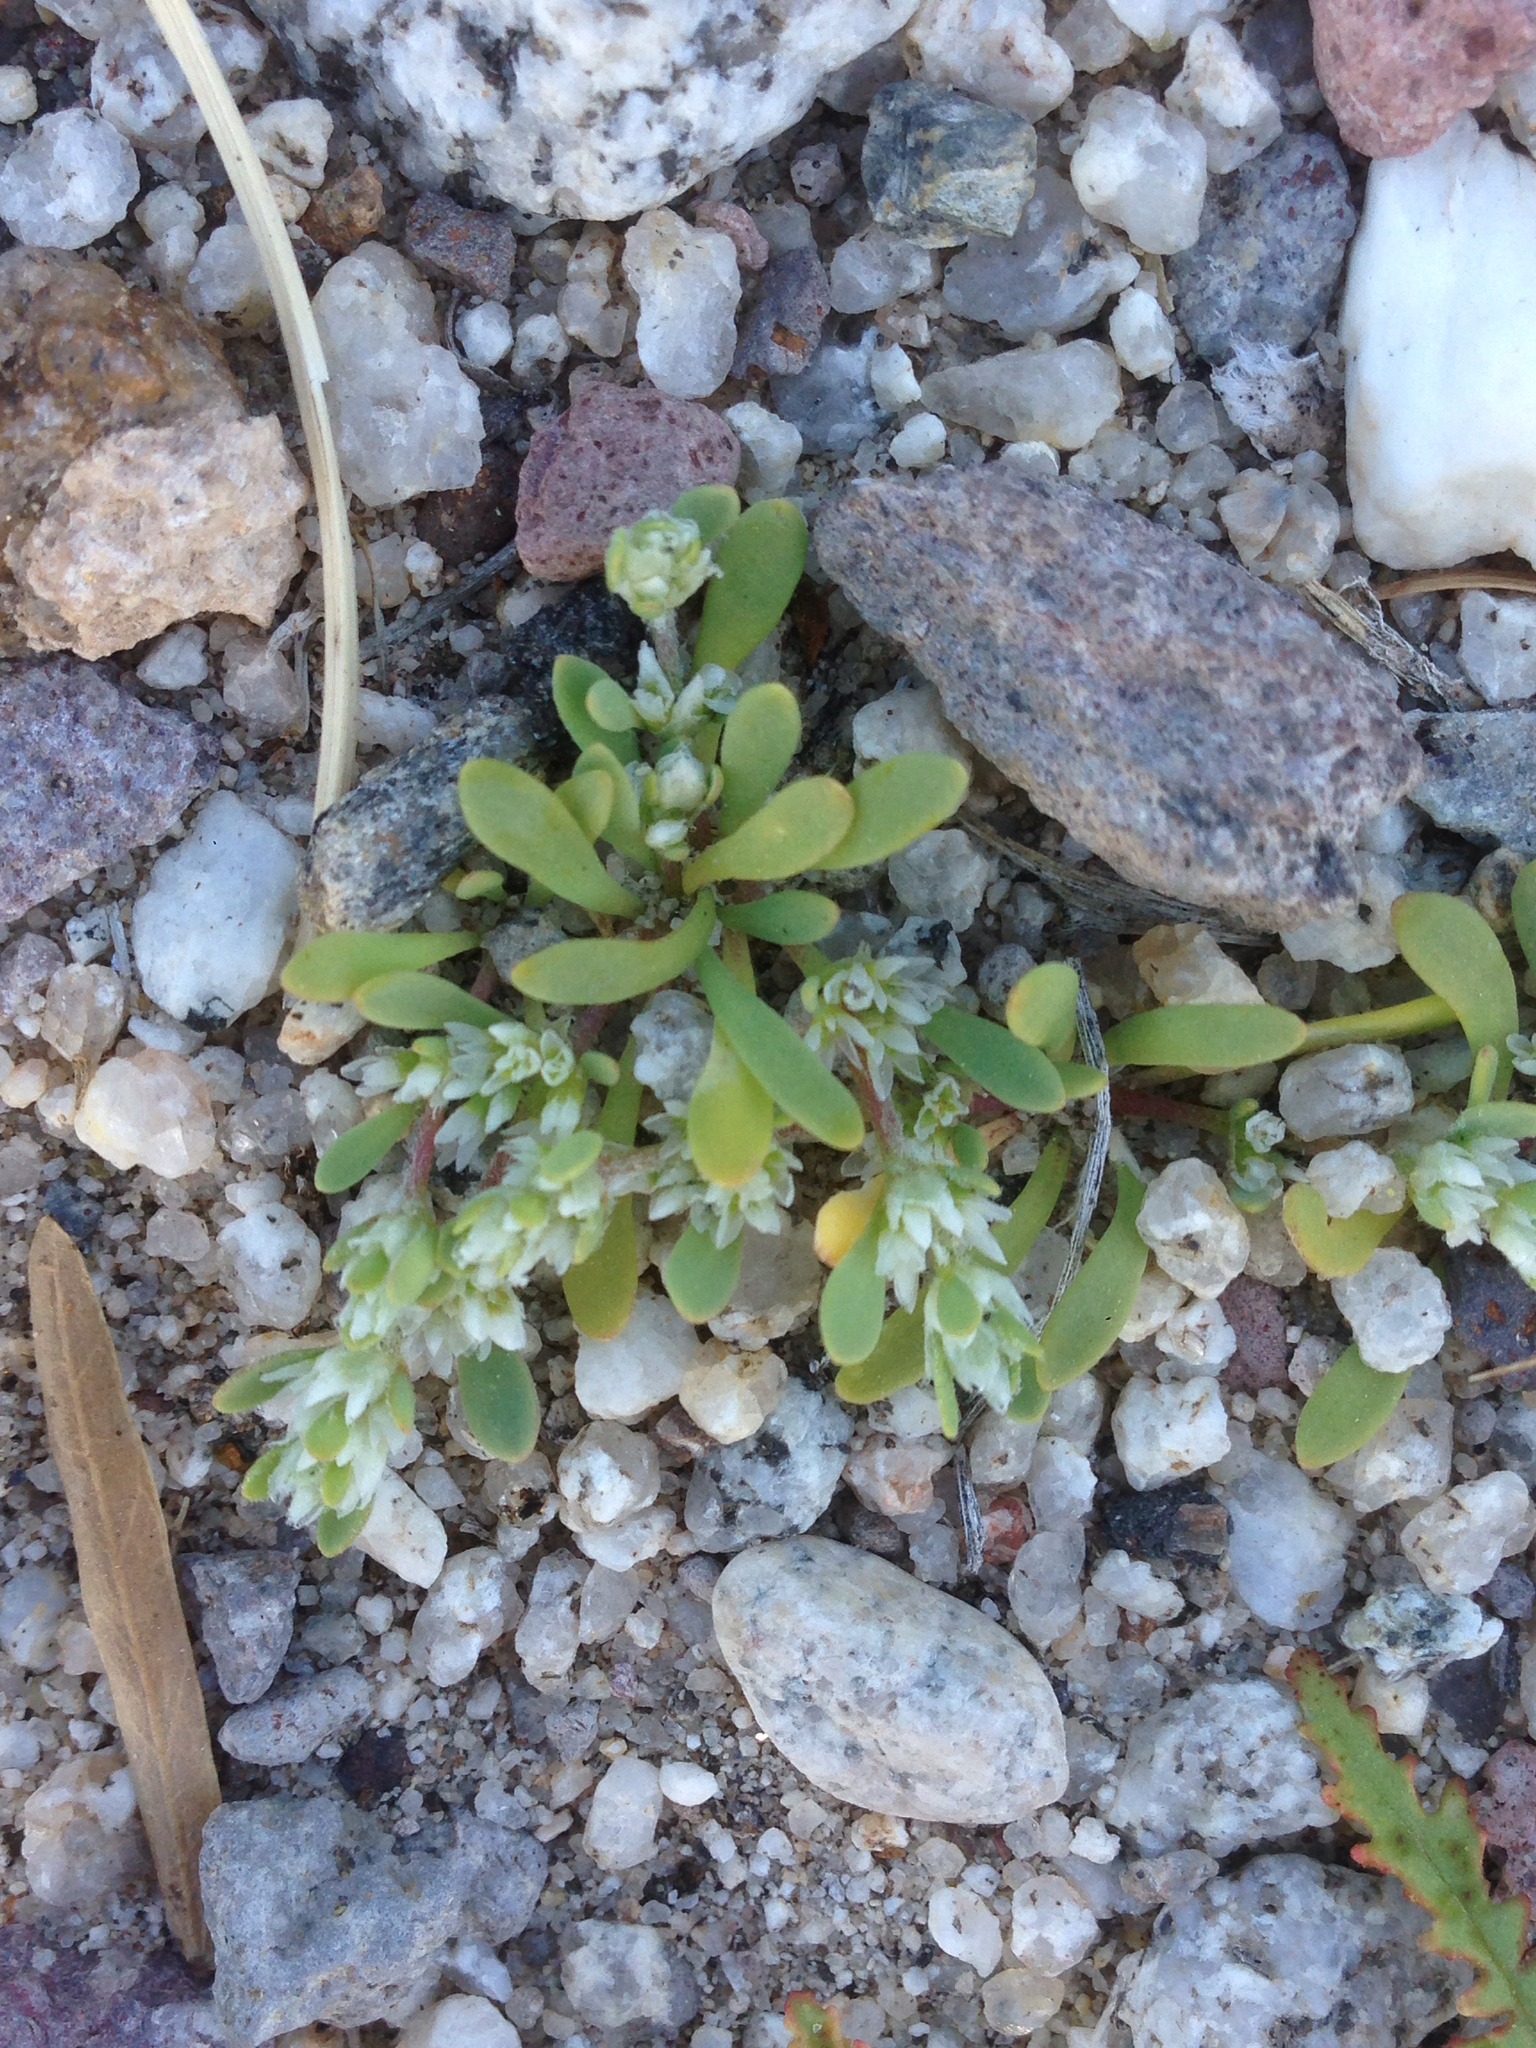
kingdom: Plantae
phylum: Tracheophyta
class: Magnoliopsida
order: Caryophyllales
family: Caryophyllaceae
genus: Achyronychia
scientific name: Achyronychia cooperi
